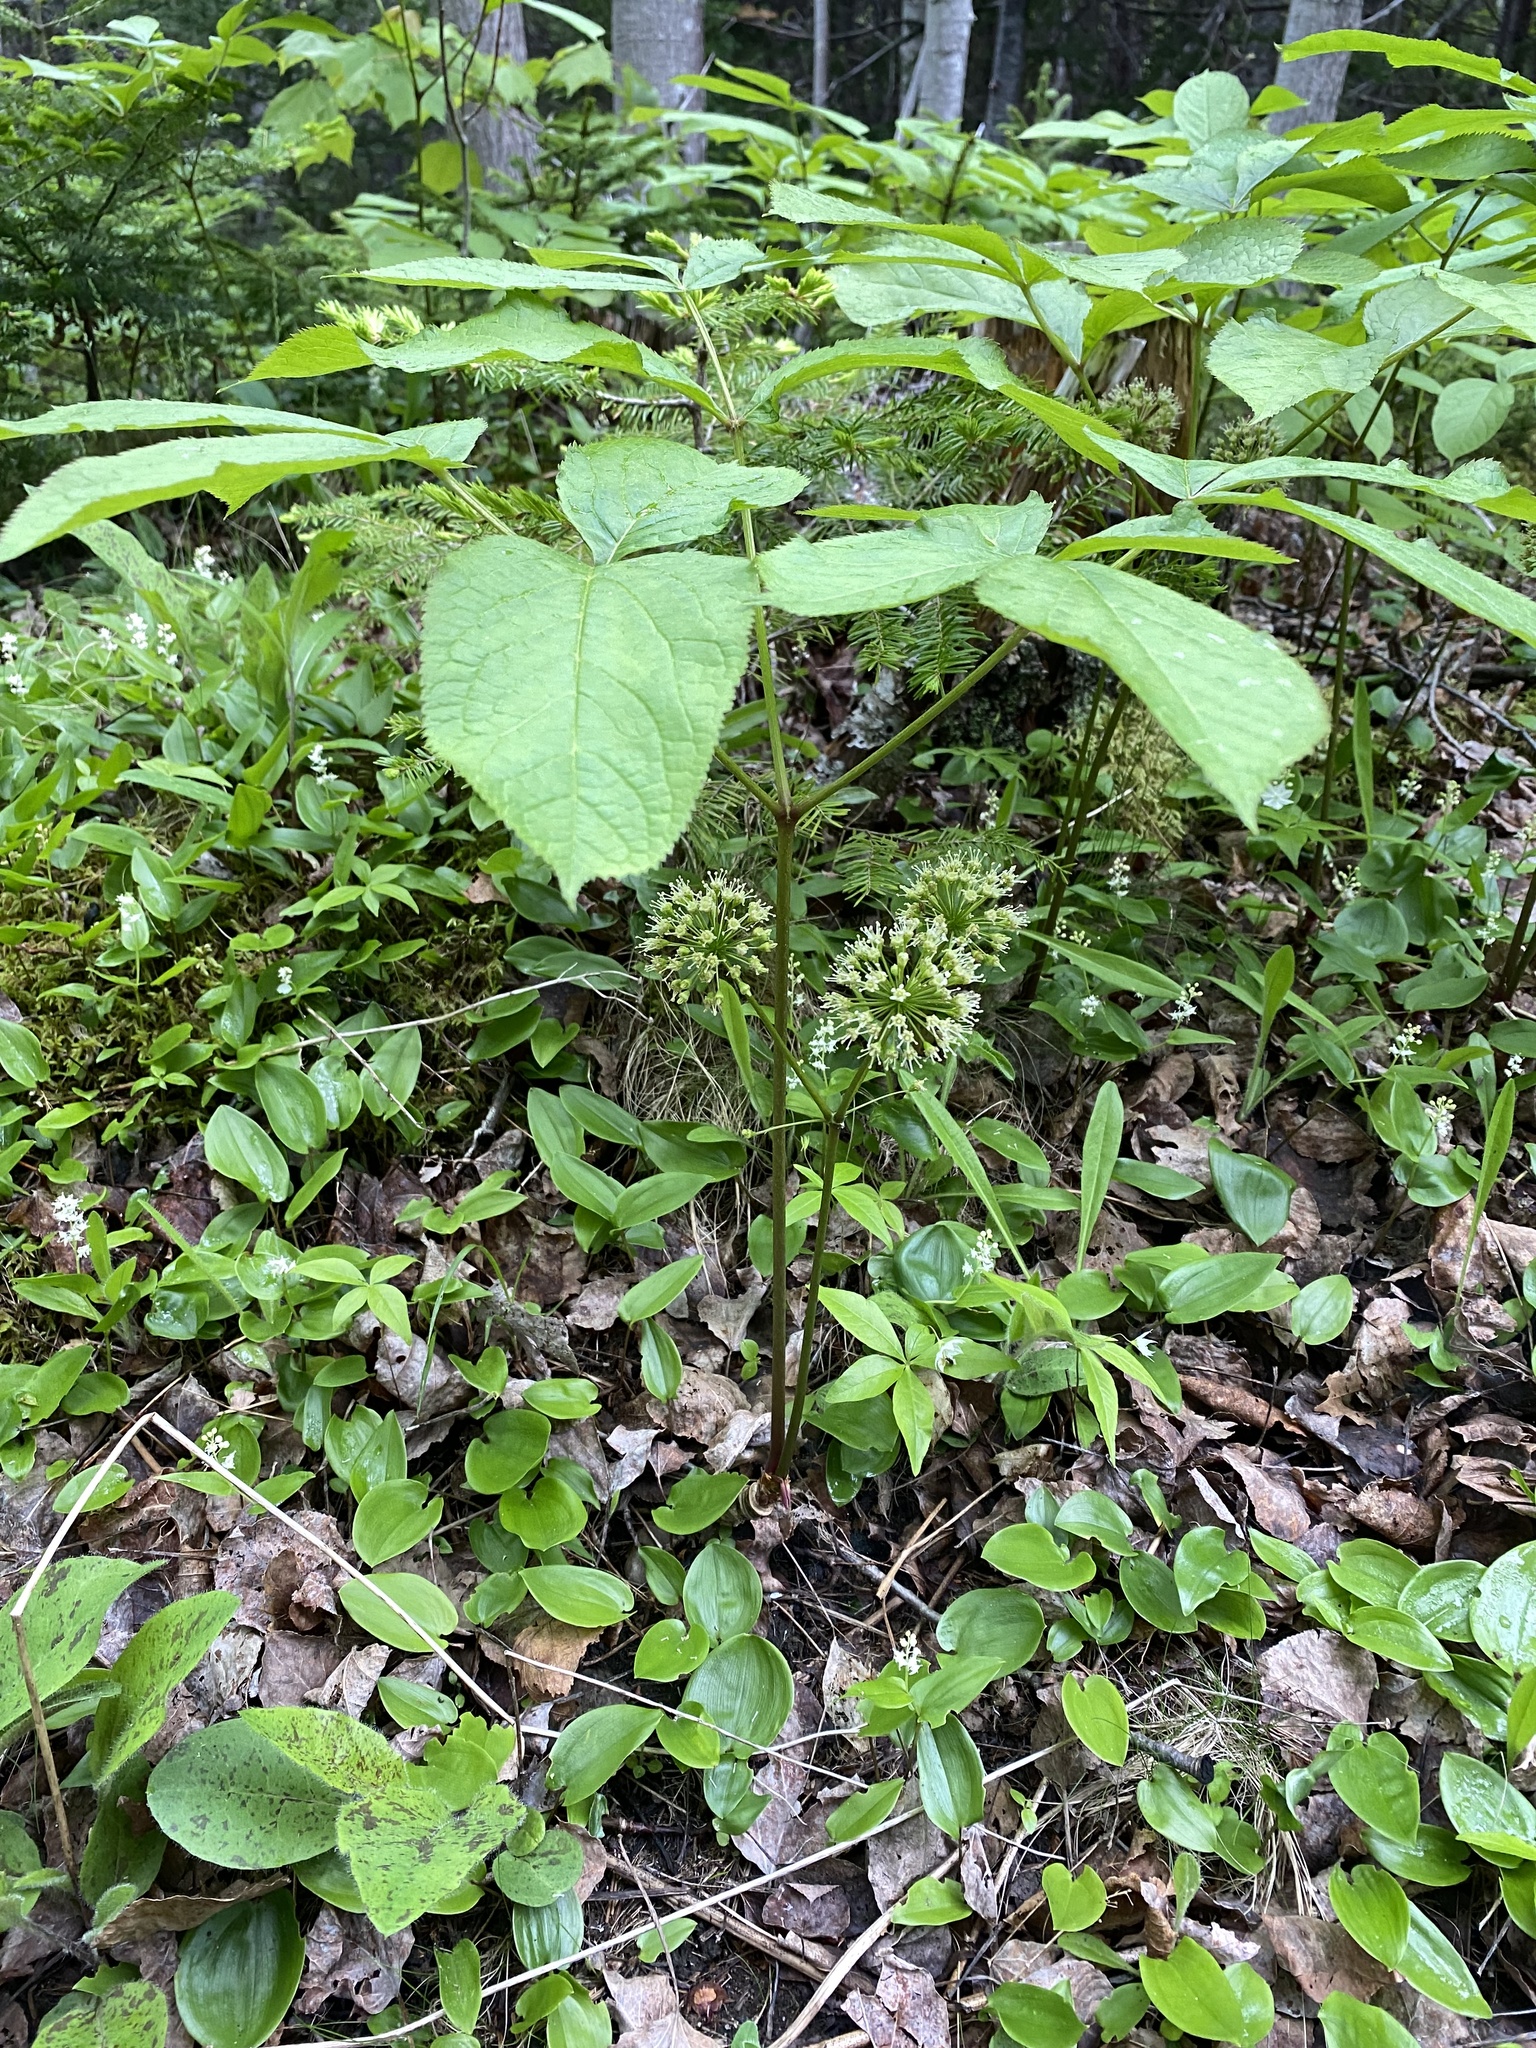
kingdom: Plantae
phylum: Tracheophyta
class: Magnoliopsida
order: Apiales
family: Araliaceae
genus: Aralia
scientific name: Aralia nudicaulis
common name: Wild sarsaparilla
